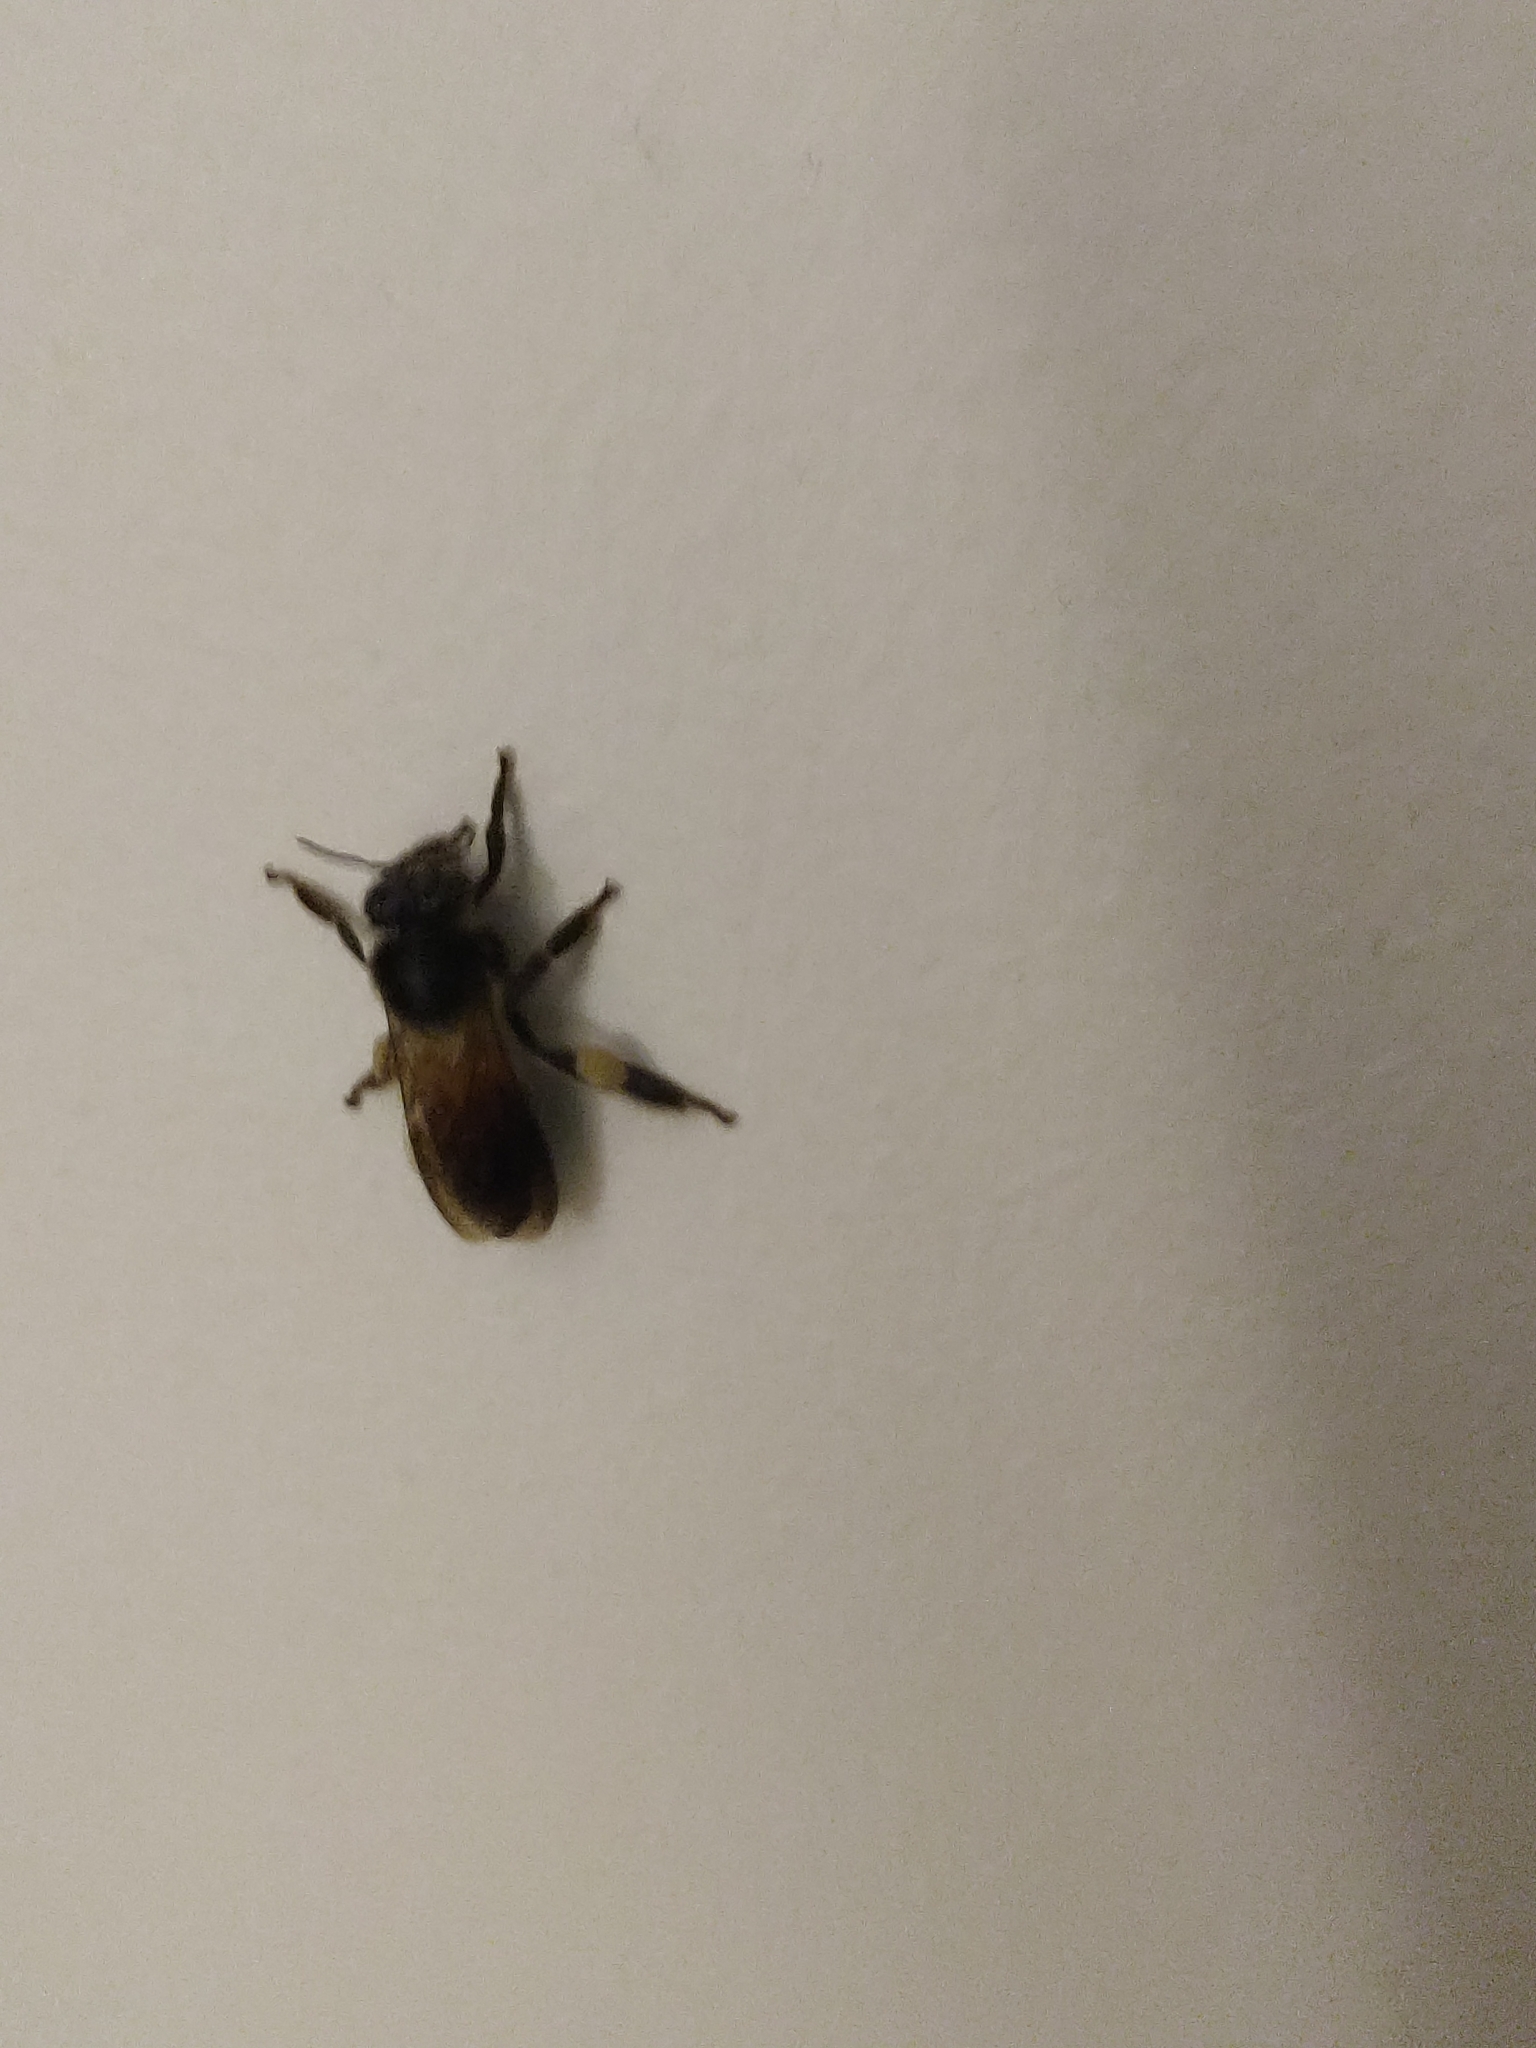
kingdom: Animalia
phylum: Arthropoda
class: Insecta
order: Hymenoptera
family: Apidae
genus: Apis
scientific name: Apis dorsata
